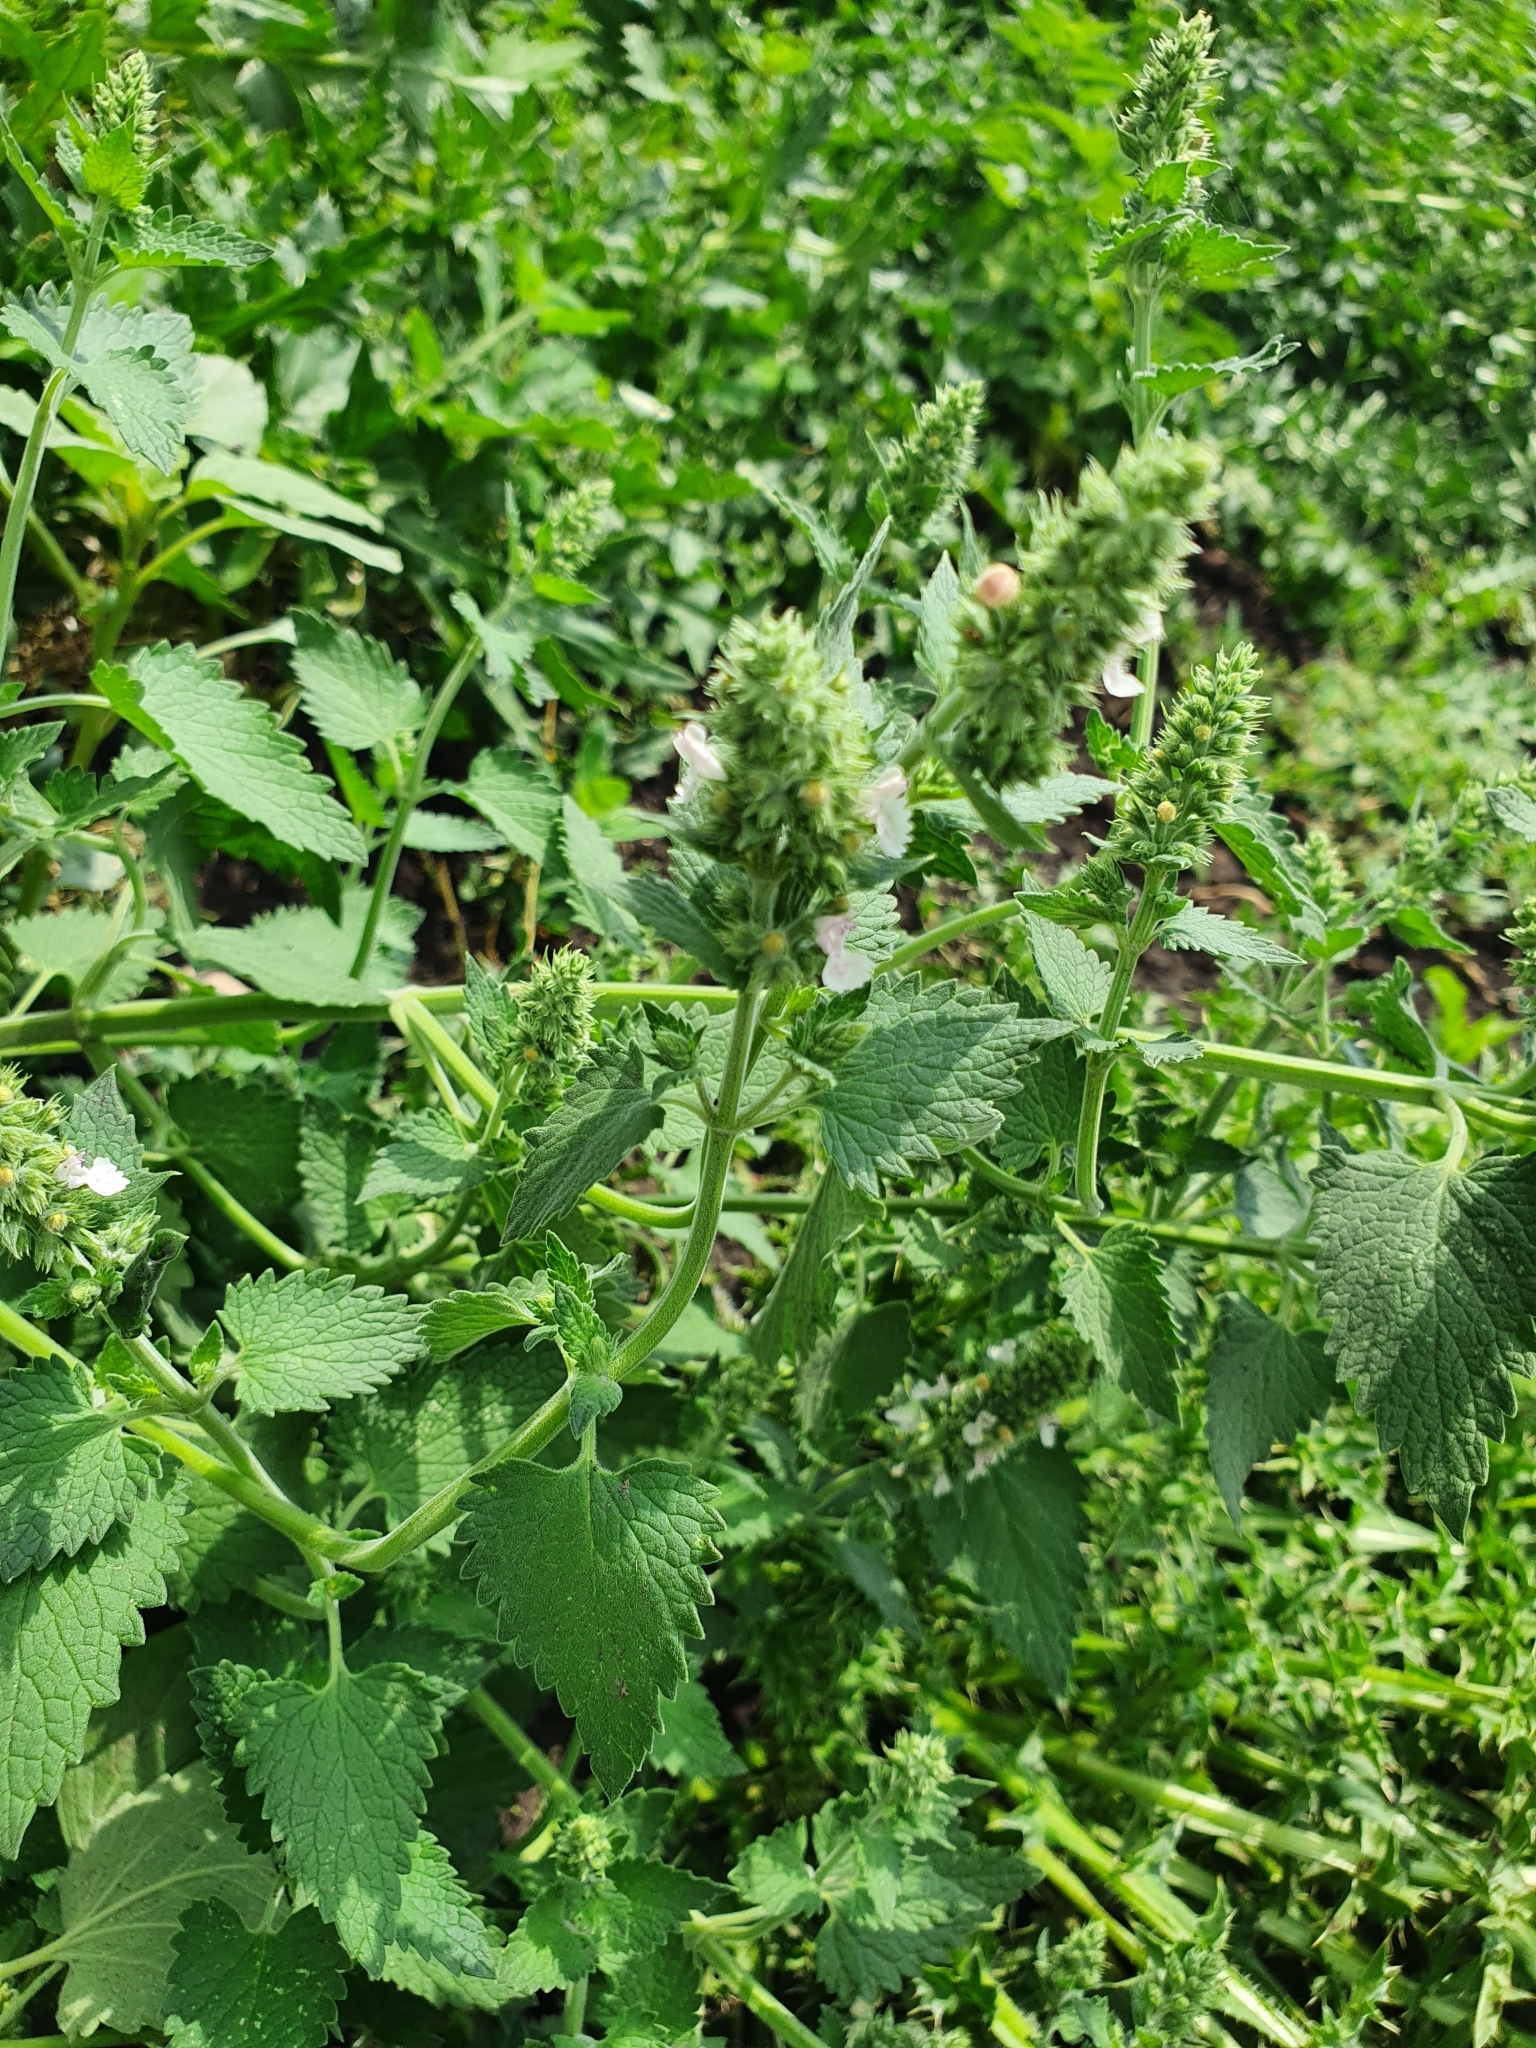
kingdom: Plantae
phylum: Tracheophyta
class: Magnoliopsida
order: Lamiales
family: Lamiaceae
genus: Nepeta
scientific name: Nepeta cataria
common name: Catnip
